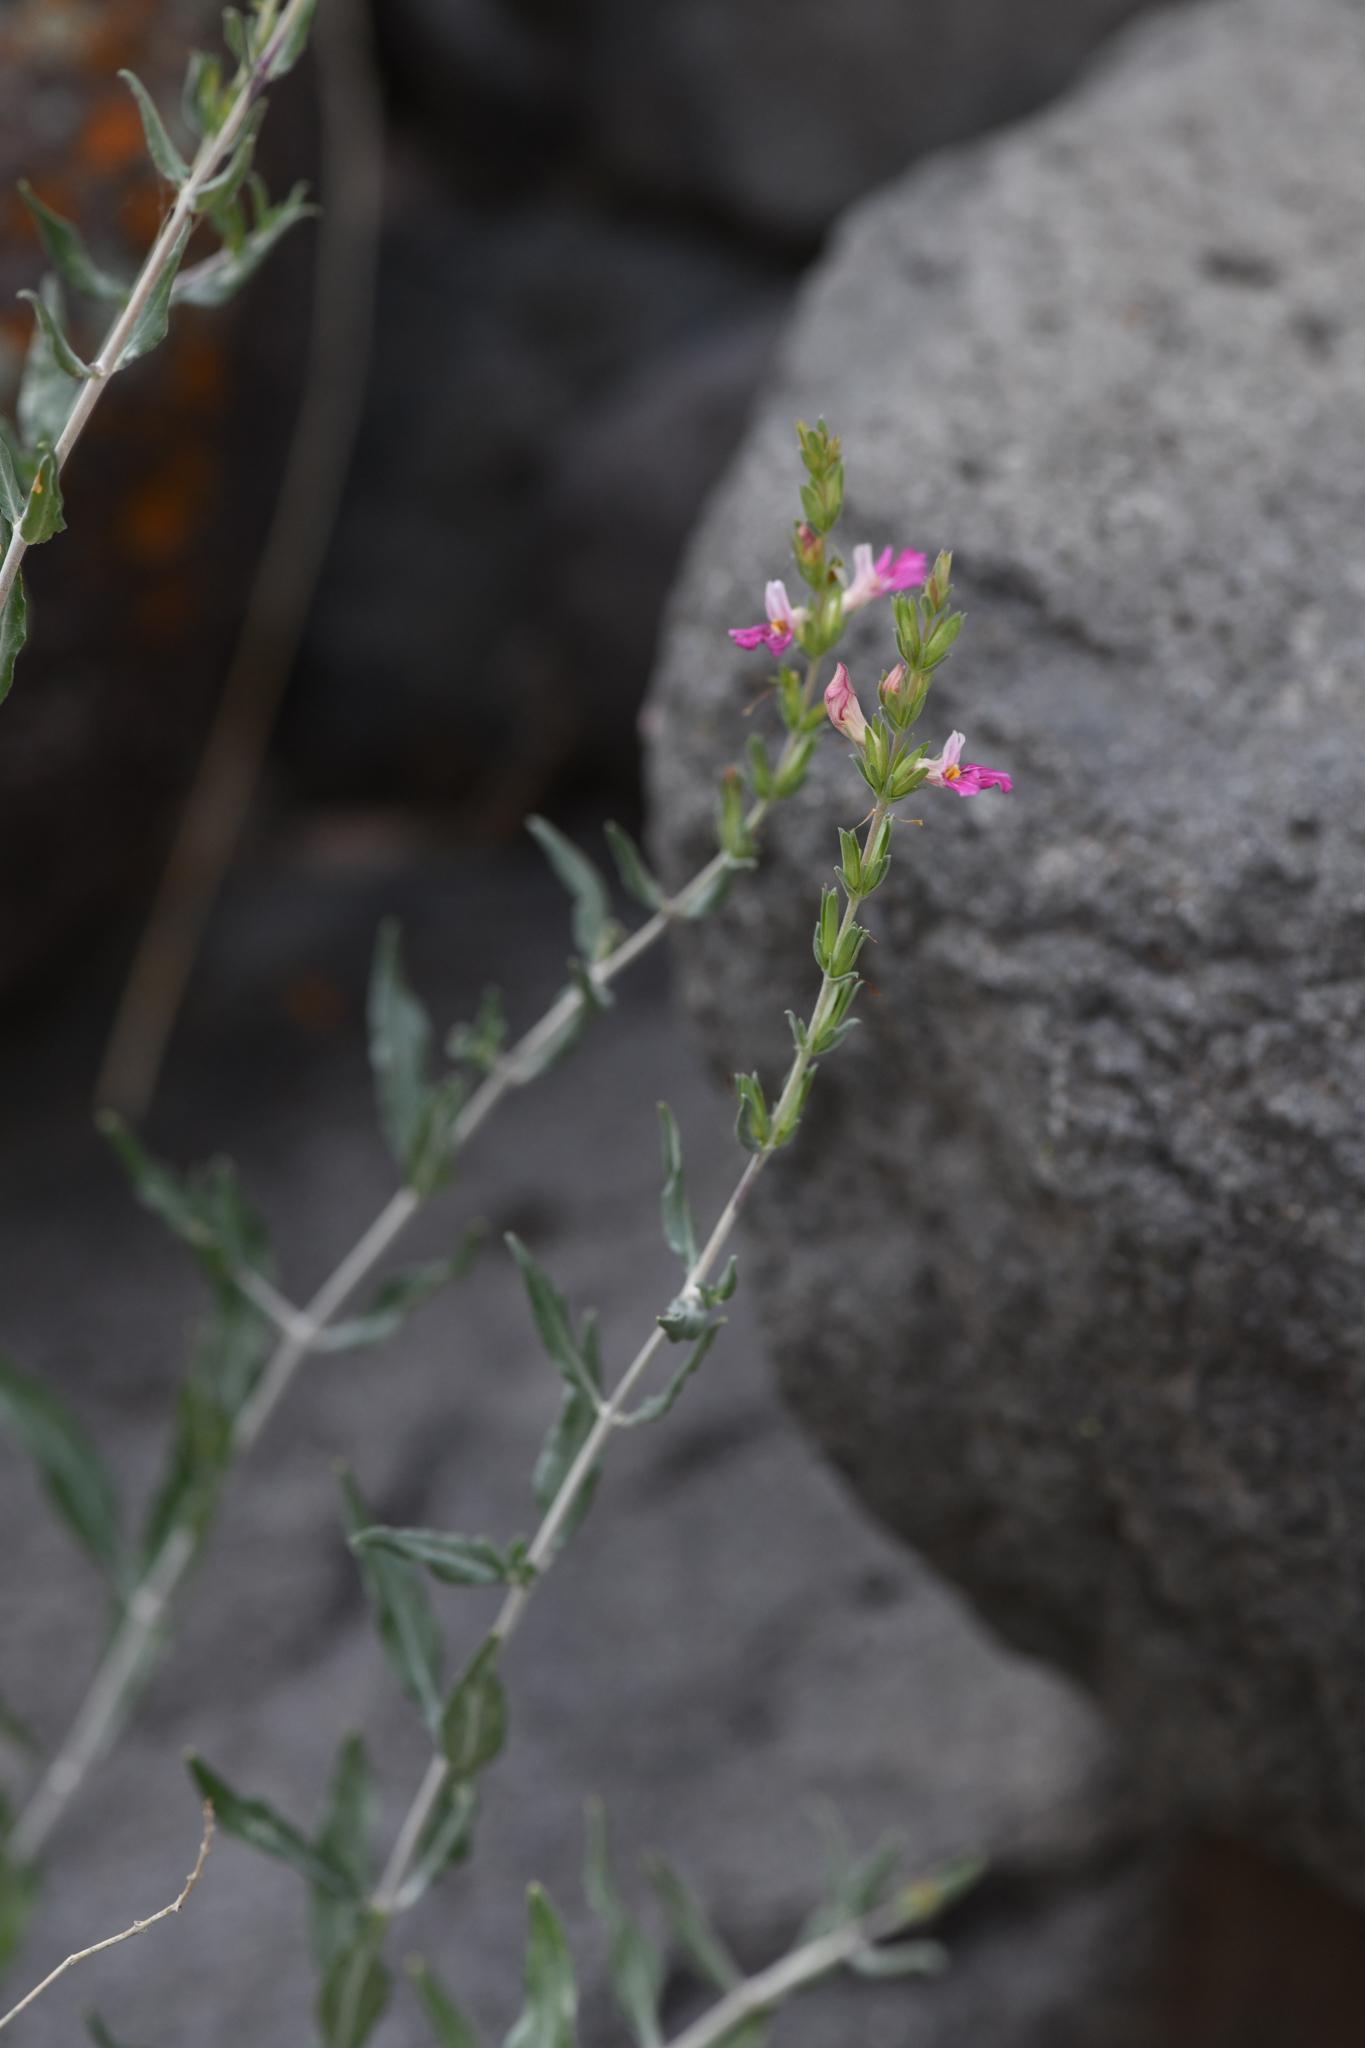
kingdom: Plantae
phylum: Tracheophyta
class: Magnoliopsida
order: Lamiales
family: Acanthaceae
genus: Holographis
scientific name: Holographis virgata
